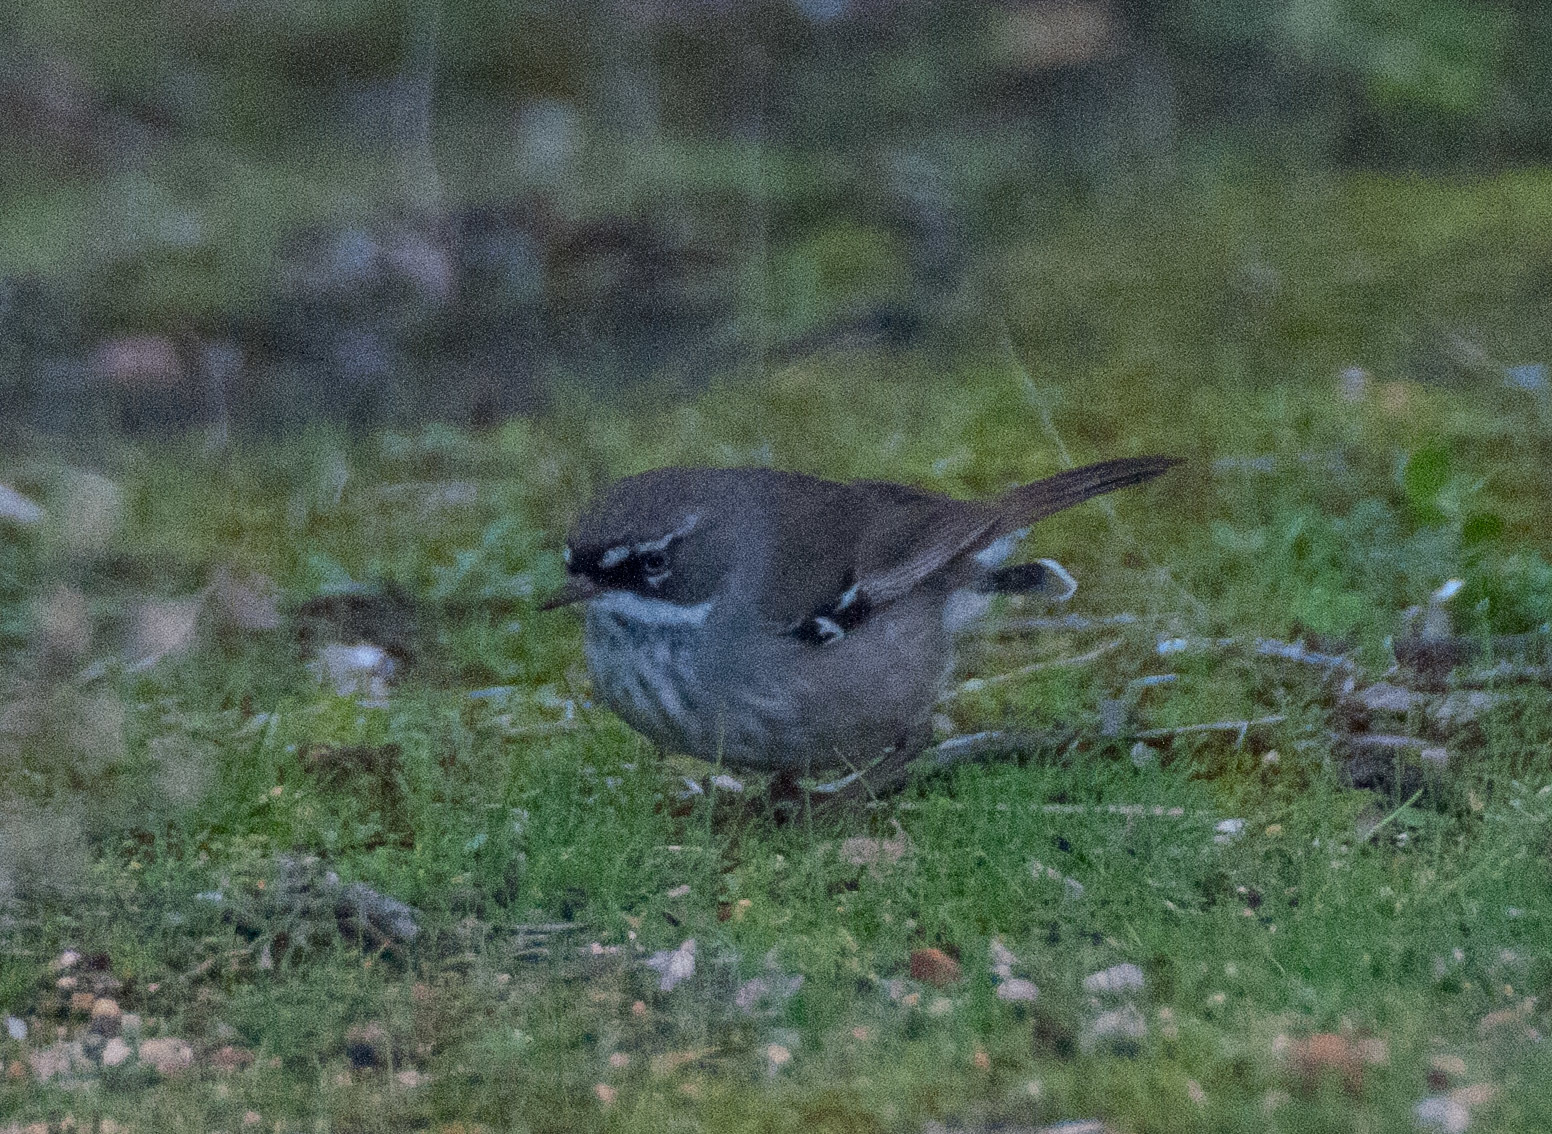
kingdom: Animalia
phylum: Chordata
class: Aves
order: Passeriformes
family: Acanthizidae
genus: Sericornis
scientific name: Sericornis maculatus
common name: Spotted scrubwren
